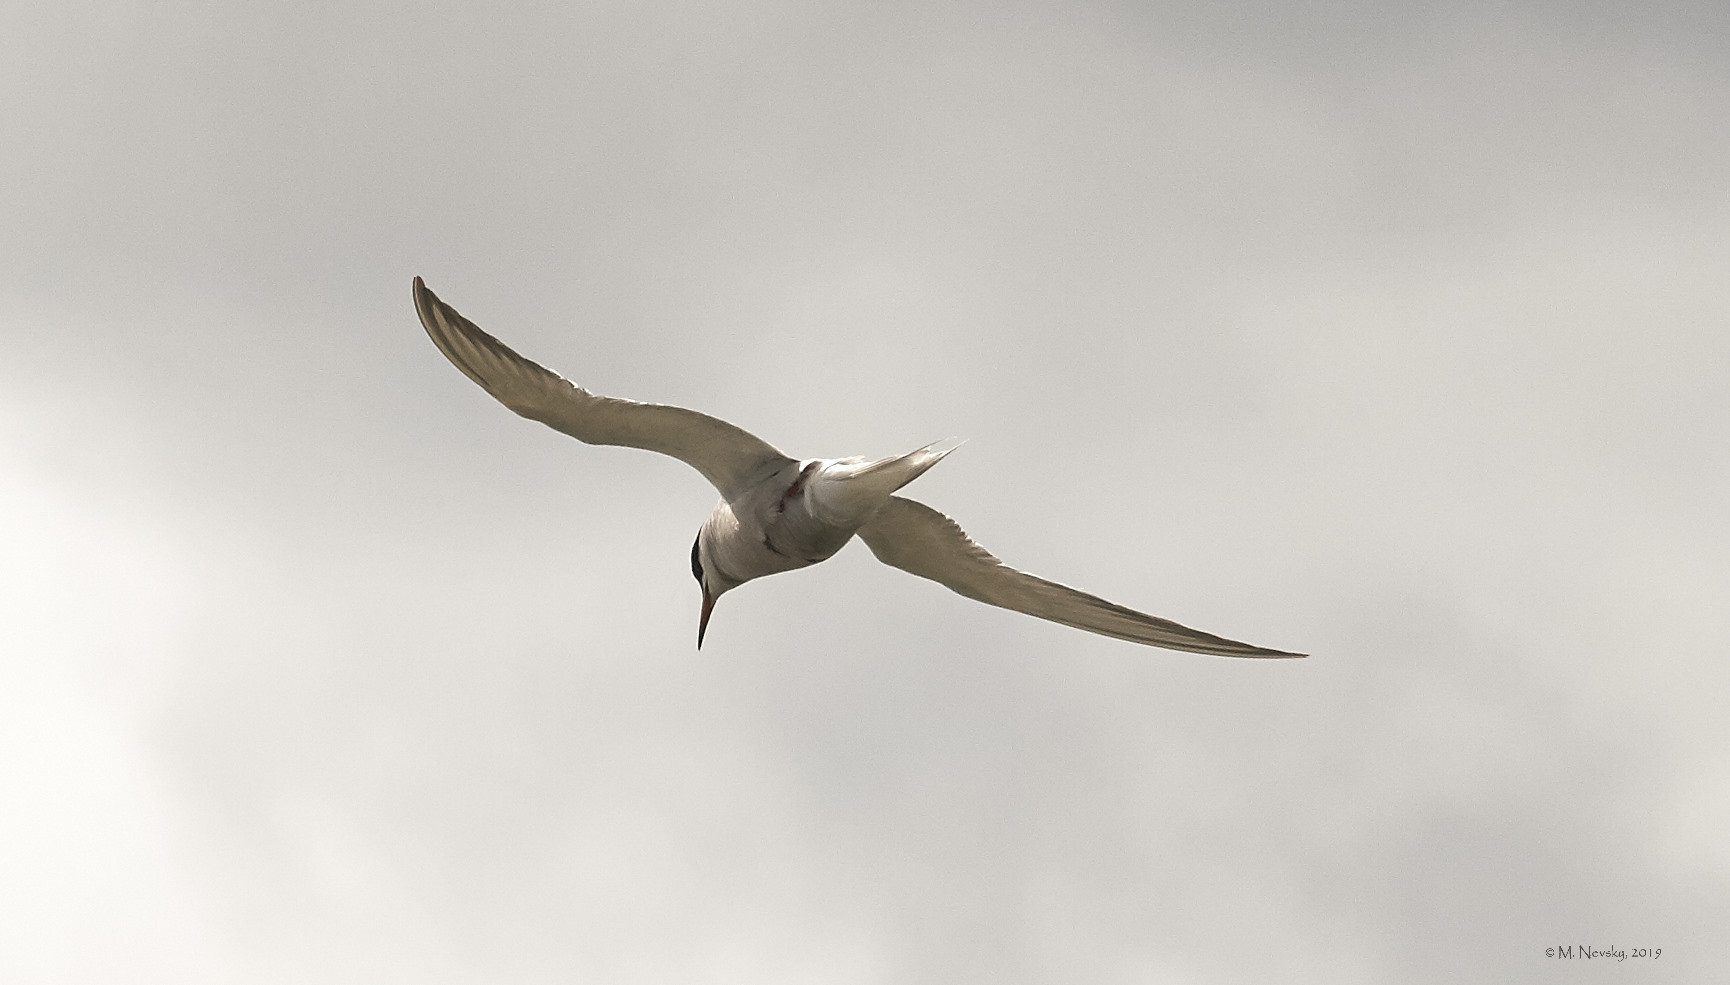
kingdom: Animalia
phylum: Chordata
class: Aves
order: Charadriiformes
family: Laridae
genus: Sterna
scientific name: Sterna hirundo
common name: Common tern
